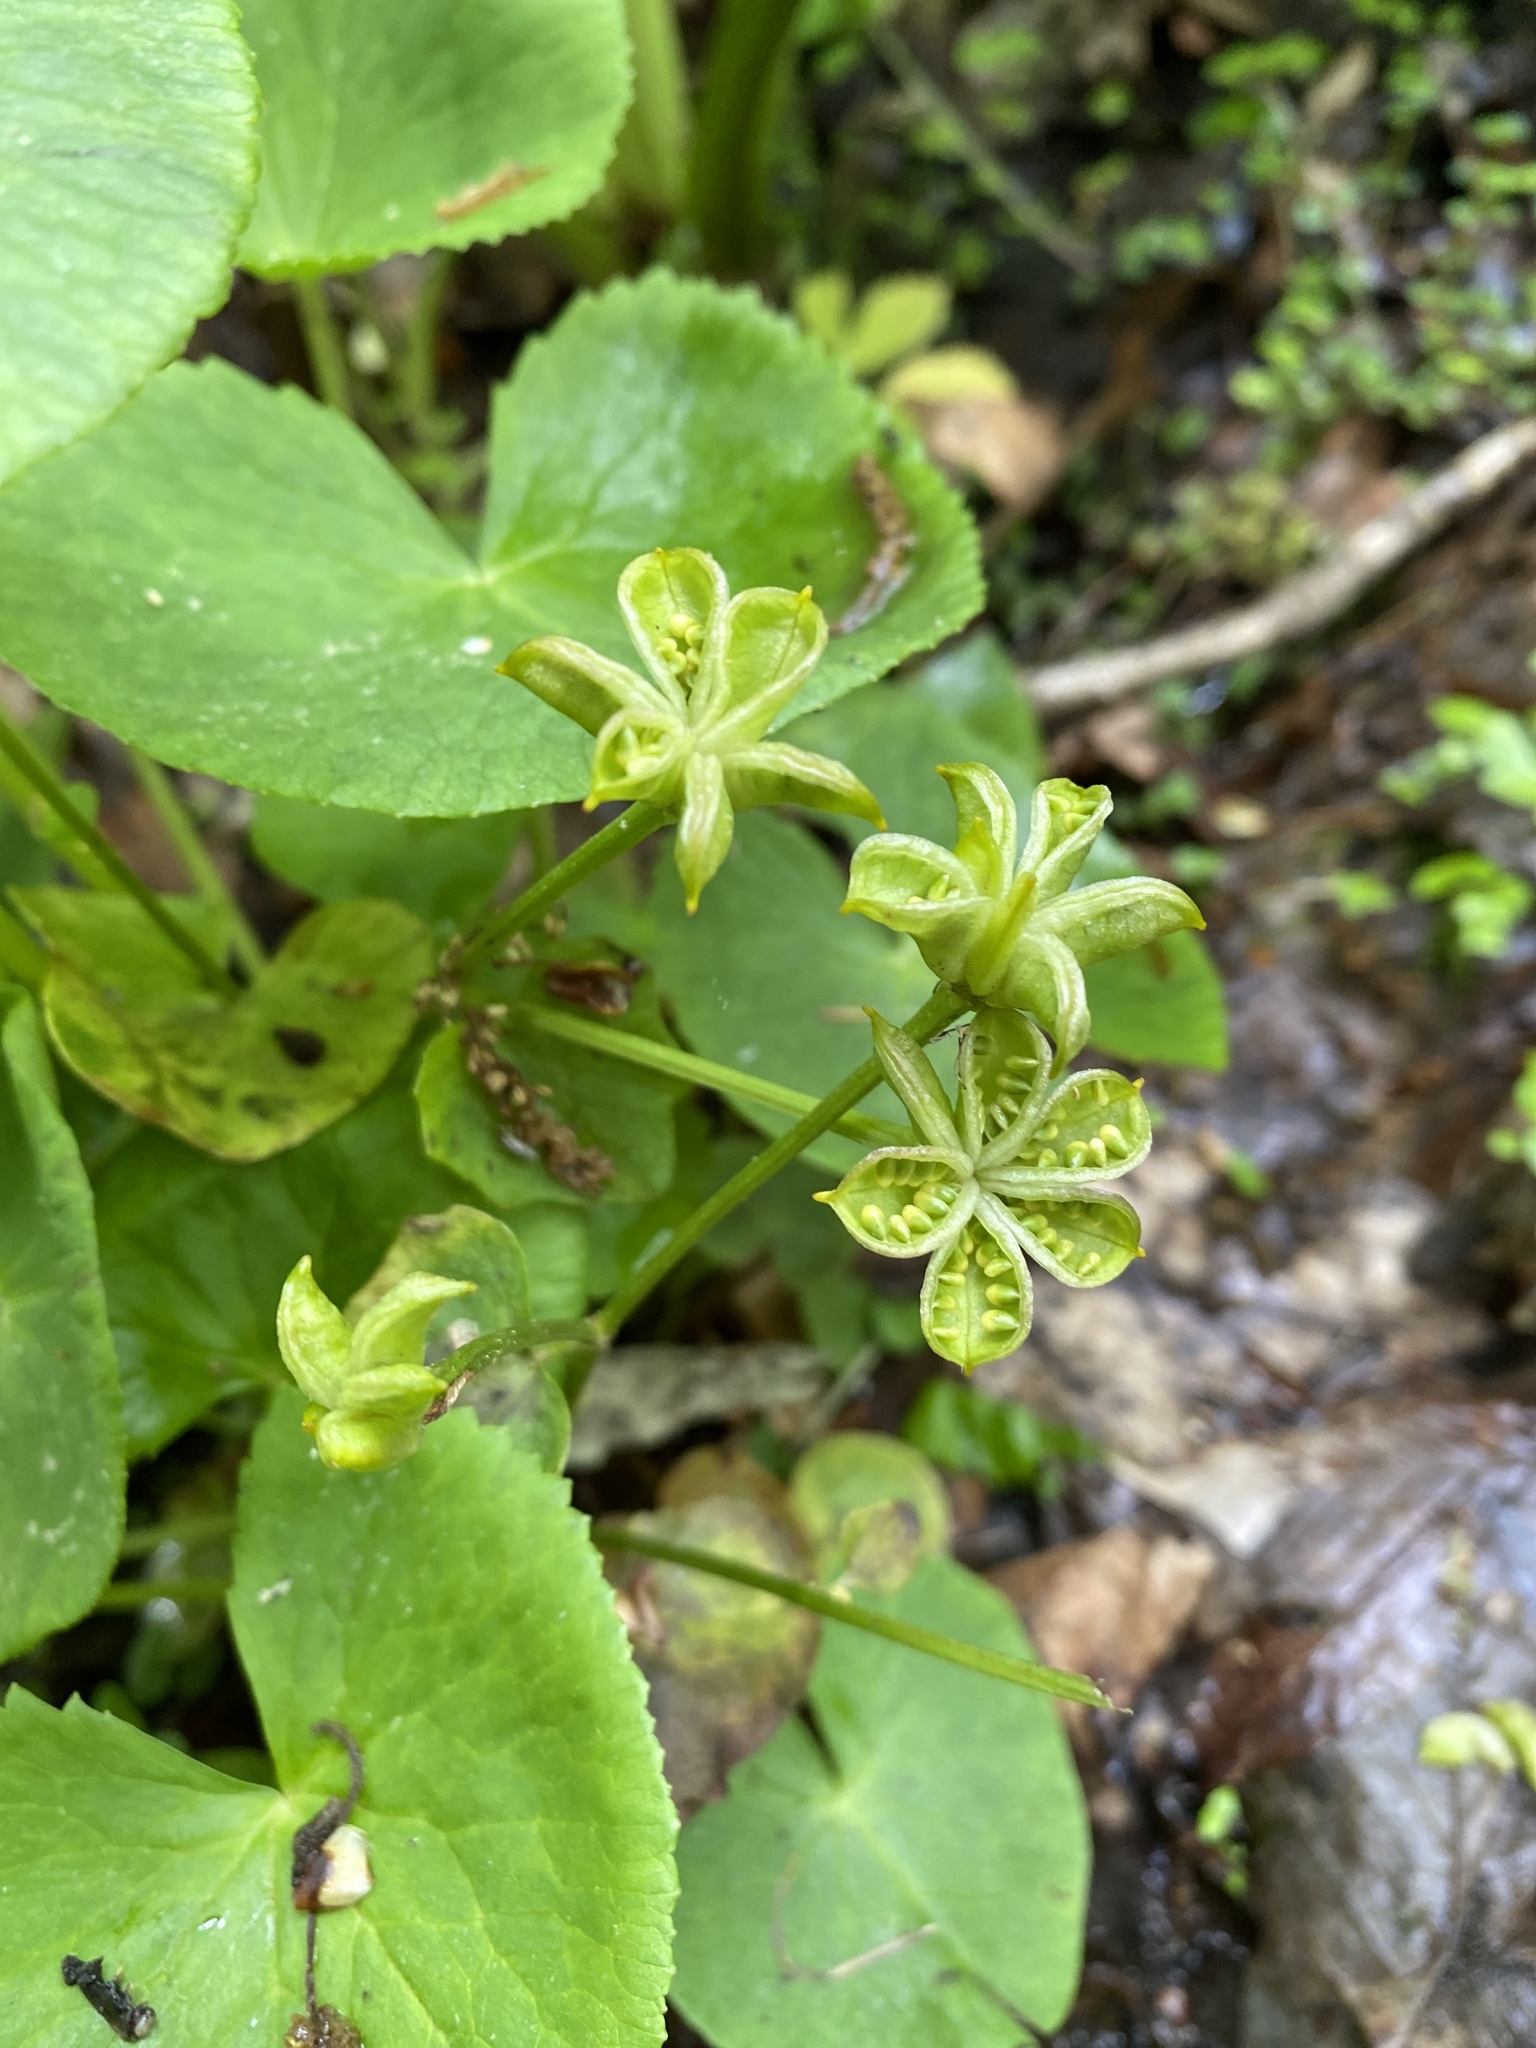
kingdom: Plantae
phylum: Tracheophyta
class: Magnoliopsida
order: Ranunculales
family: Ranunculaceae
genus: Caltha
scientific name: Caltha palustris
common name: Marsh marigold
